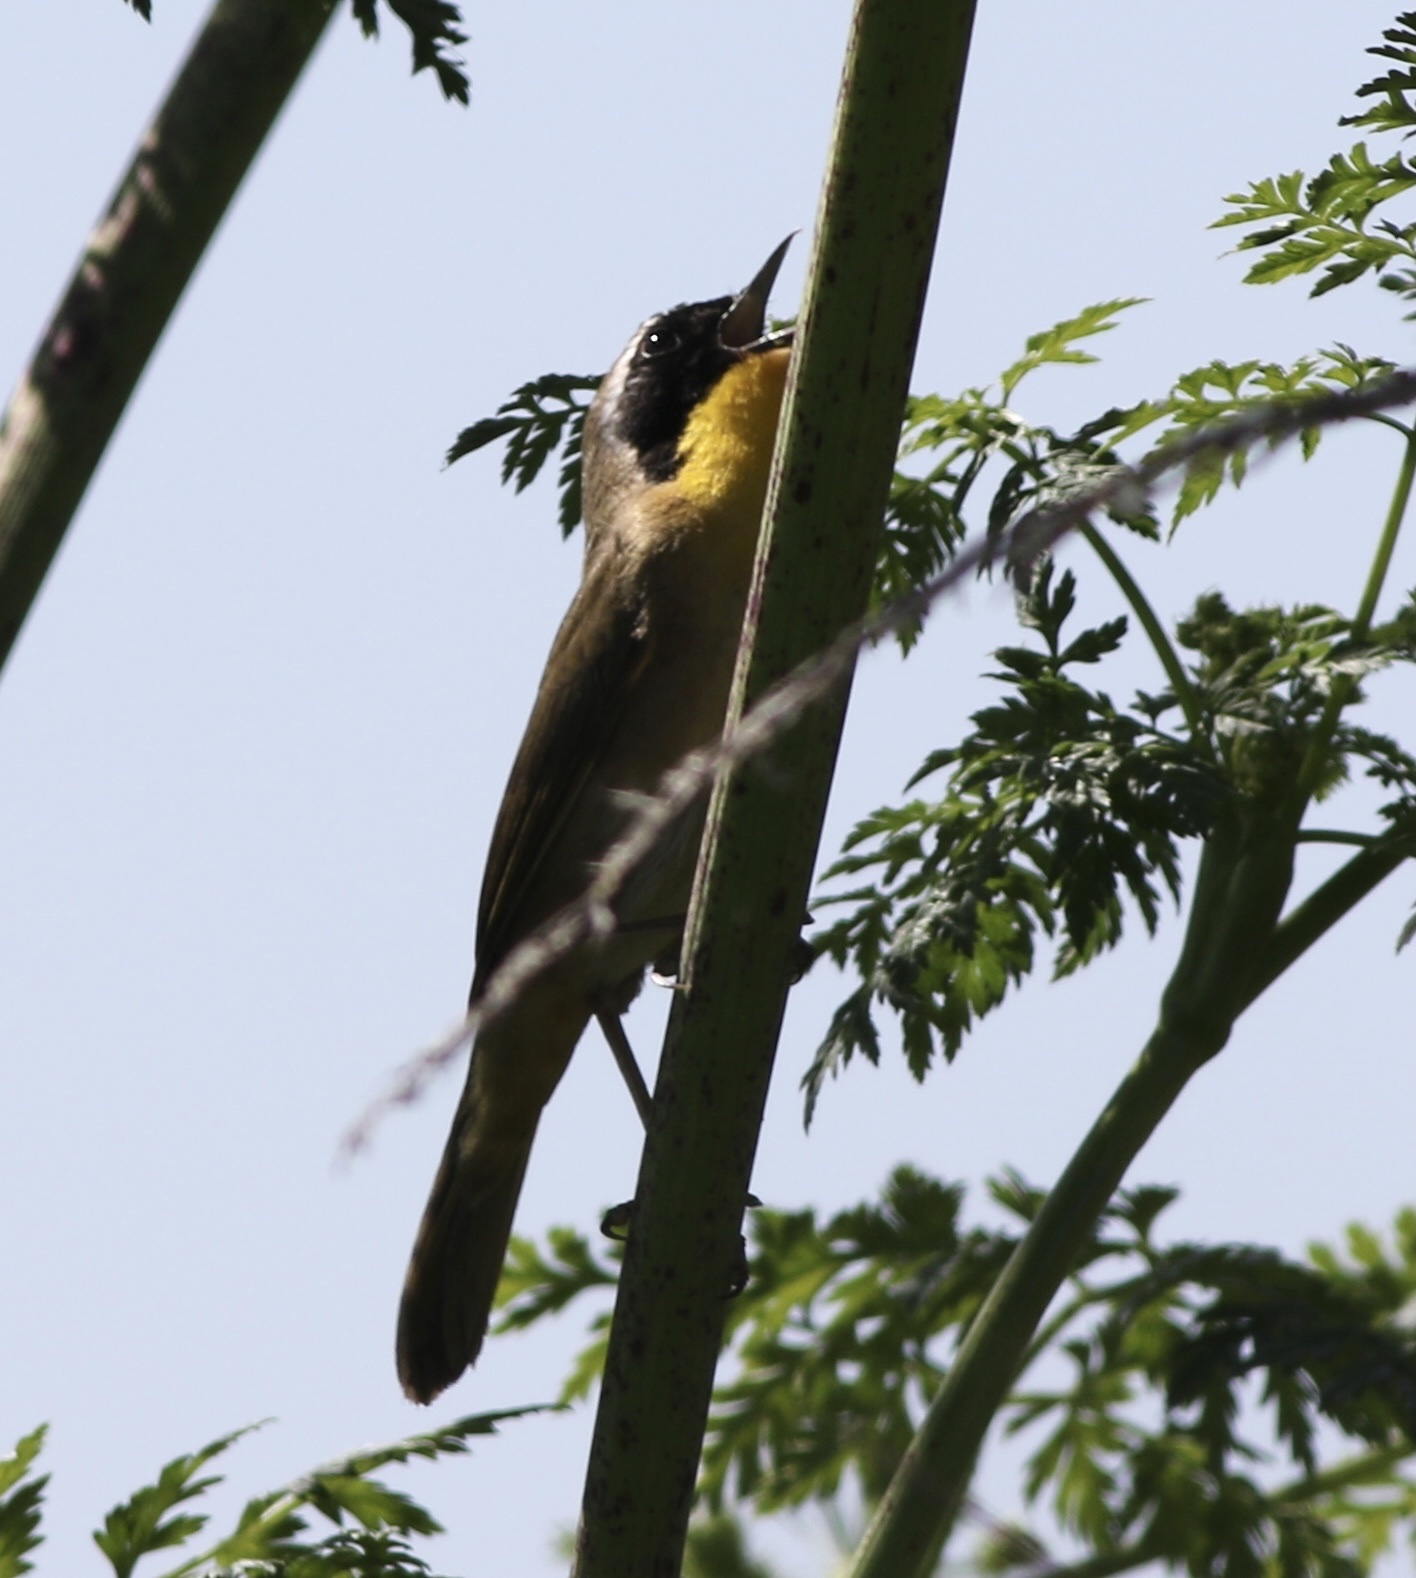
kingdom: Animalia
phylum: Chordata
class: Aves
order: Passeriformes
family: Parulidae
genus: Geothlypis
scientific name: Geothlypis trichas
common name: Common yellowthroat
